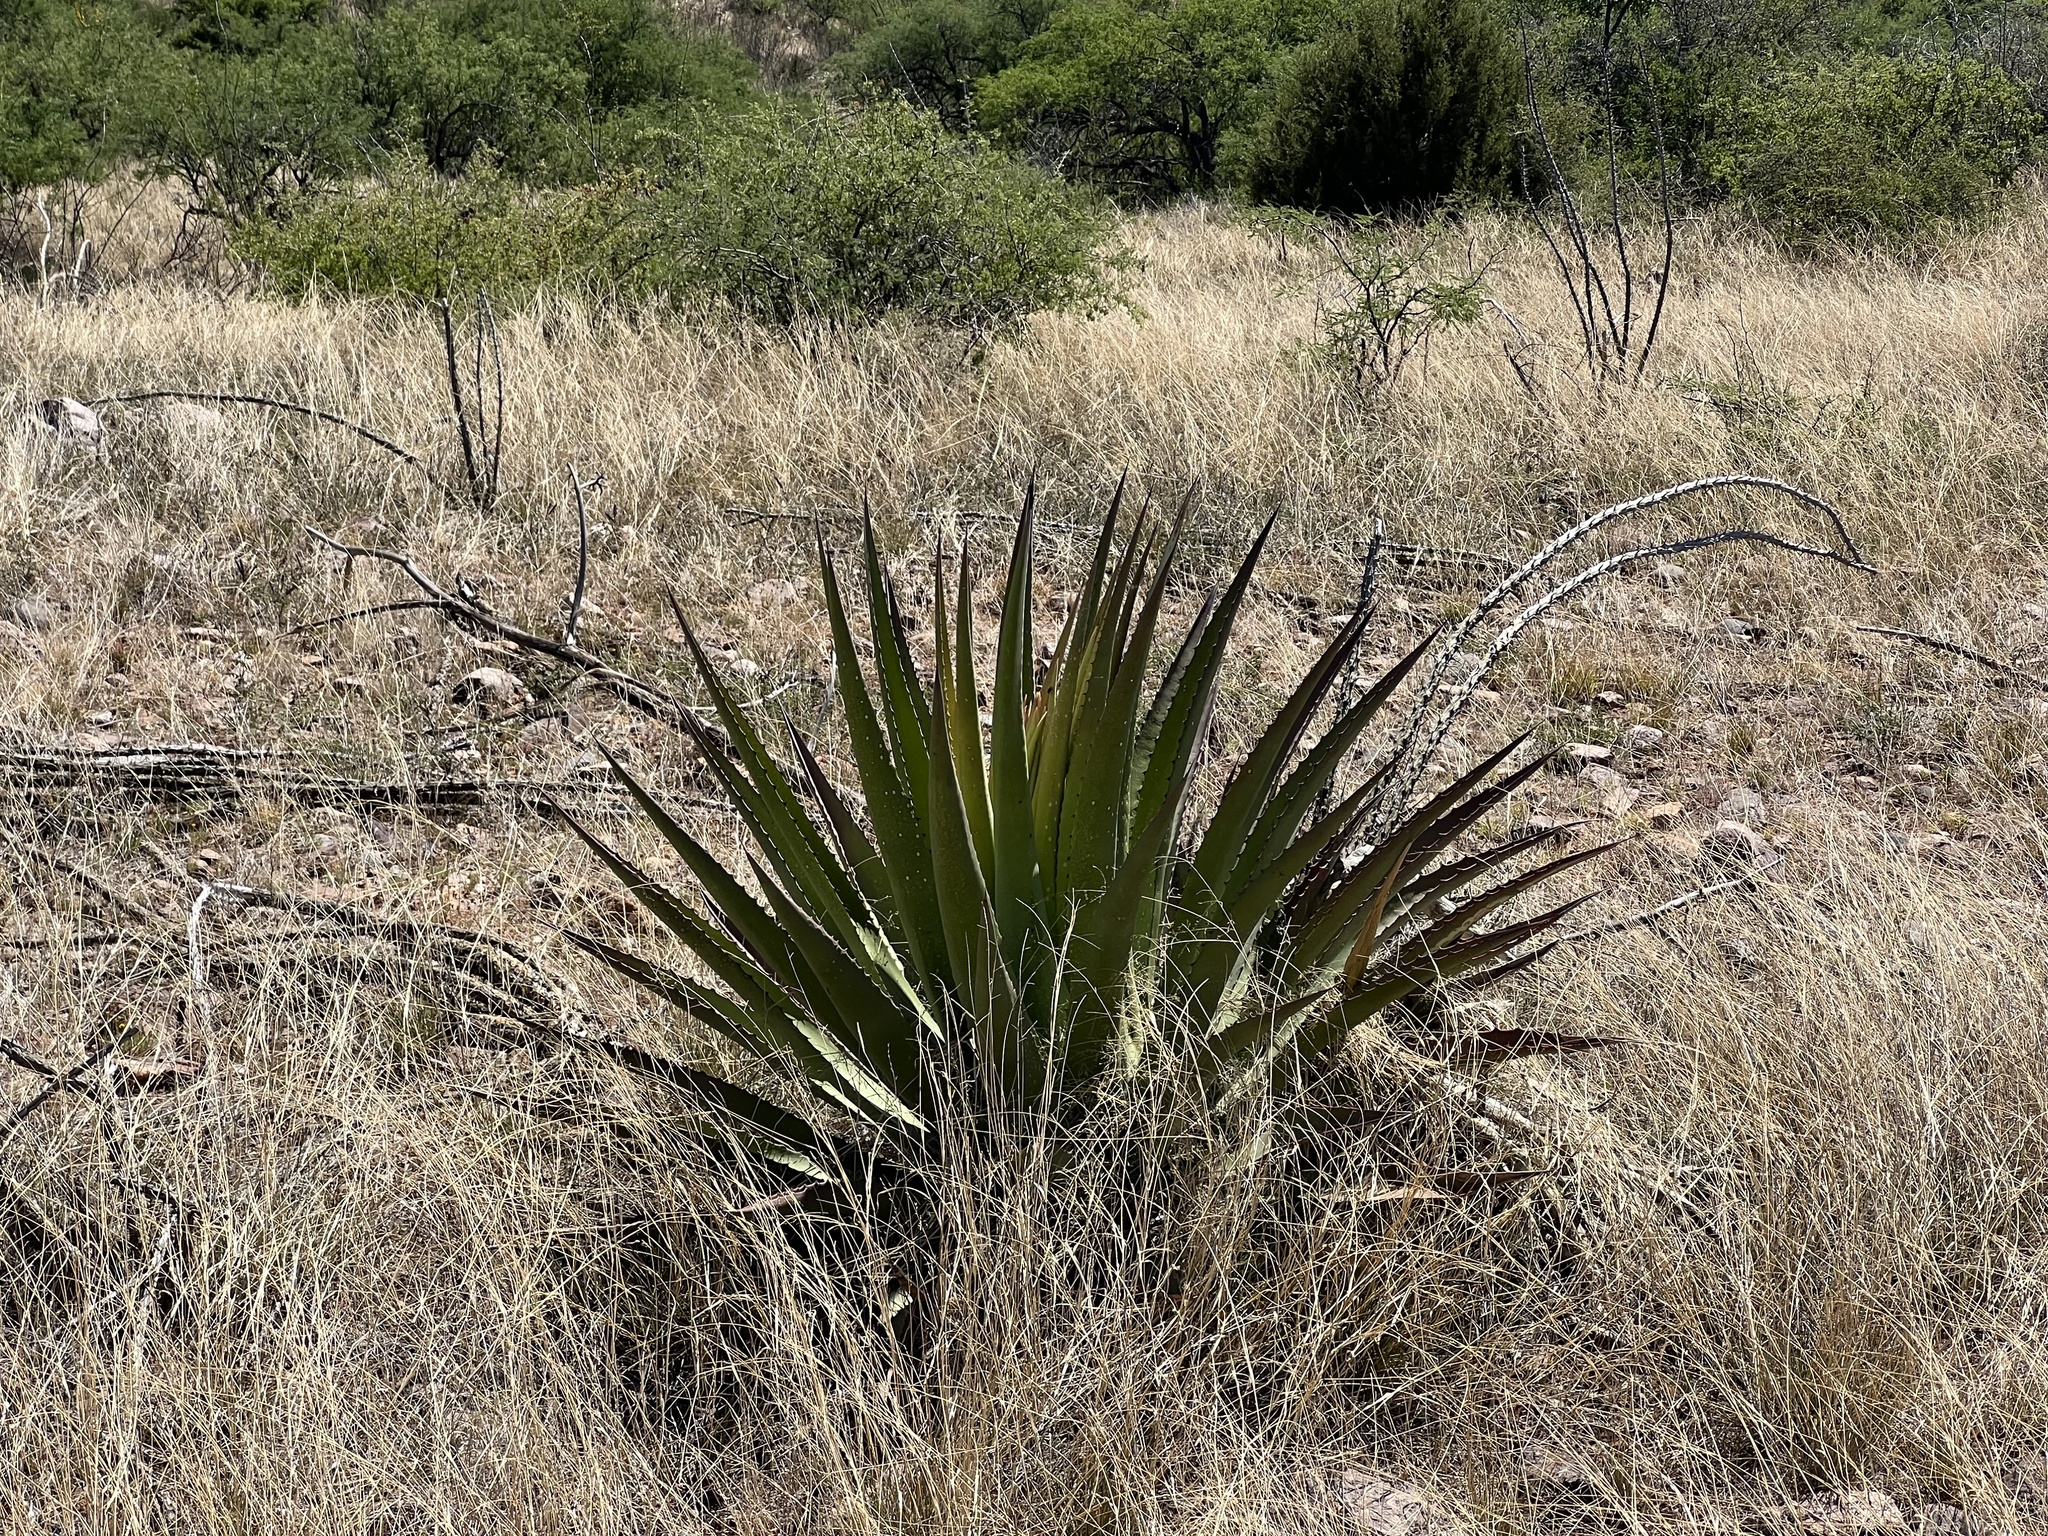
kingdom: Plantae
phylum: Tracheophyta
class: Liliopsida
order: Asparagales
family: Asparagaceae
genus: Agave
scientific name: Agave palmeri
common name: Palmer agave
